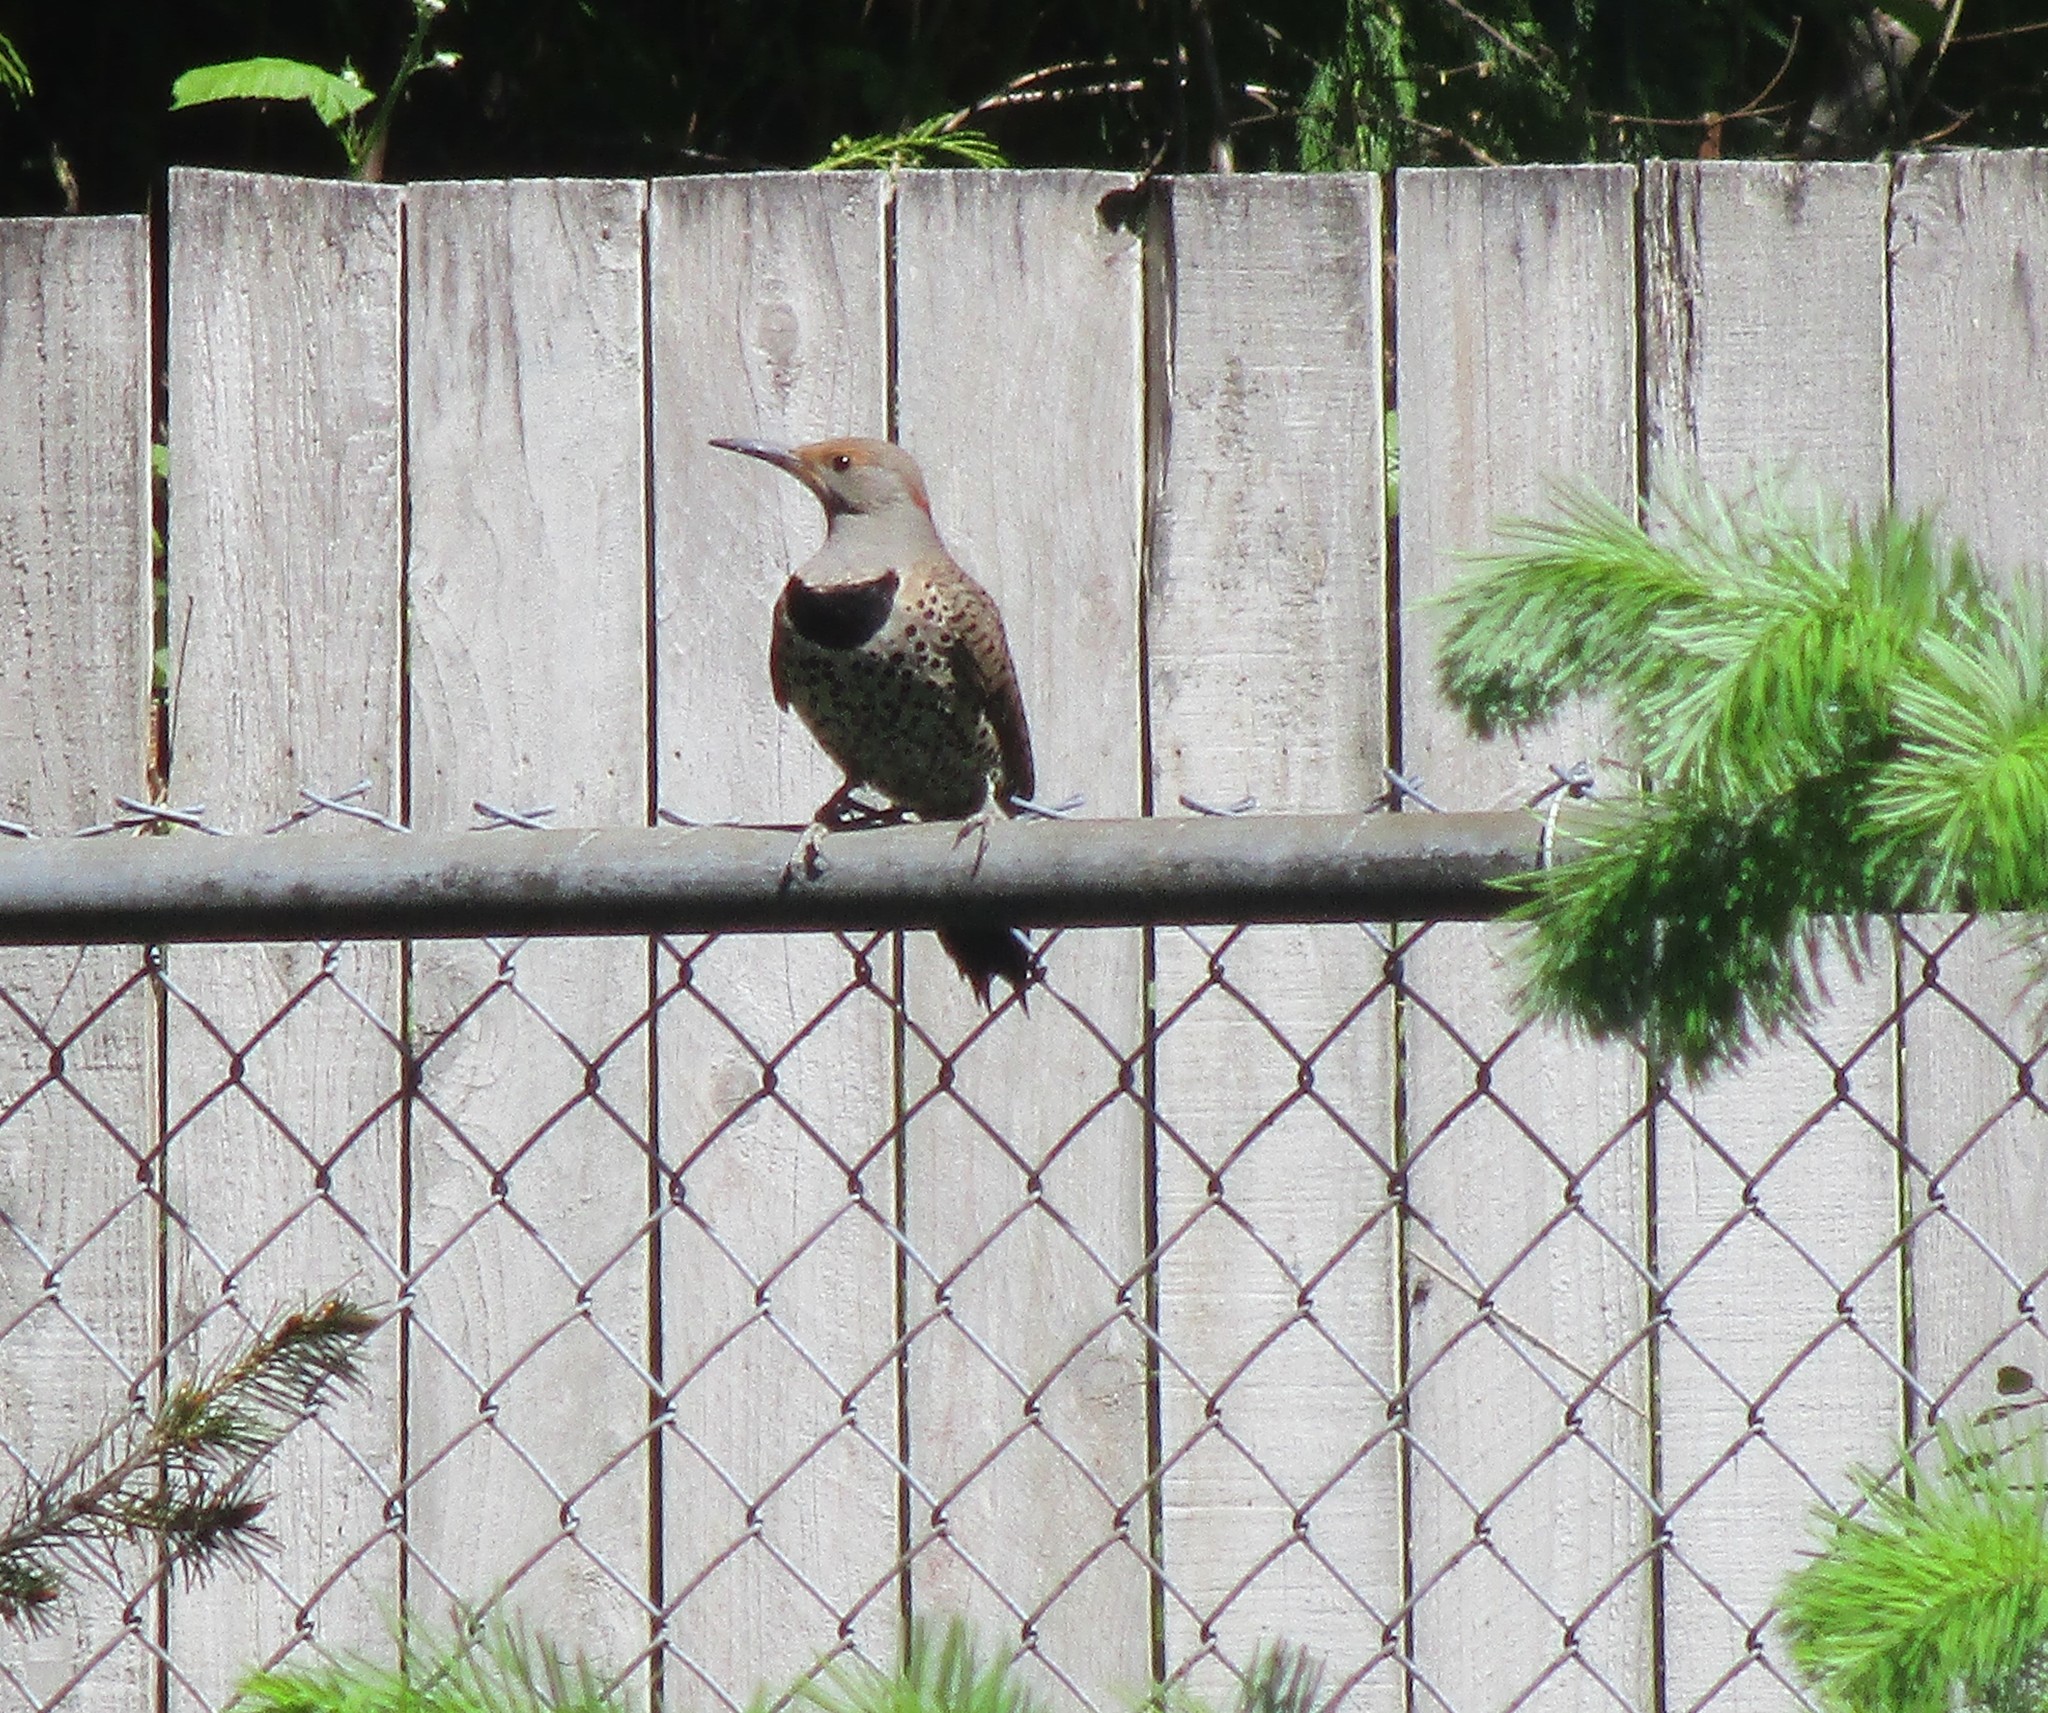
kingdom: Animalia
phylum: Chordata
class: Aves
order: Piciformes
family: Picidae
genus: Colaptes
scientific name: Colaptes auratus
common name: Northern flicker
